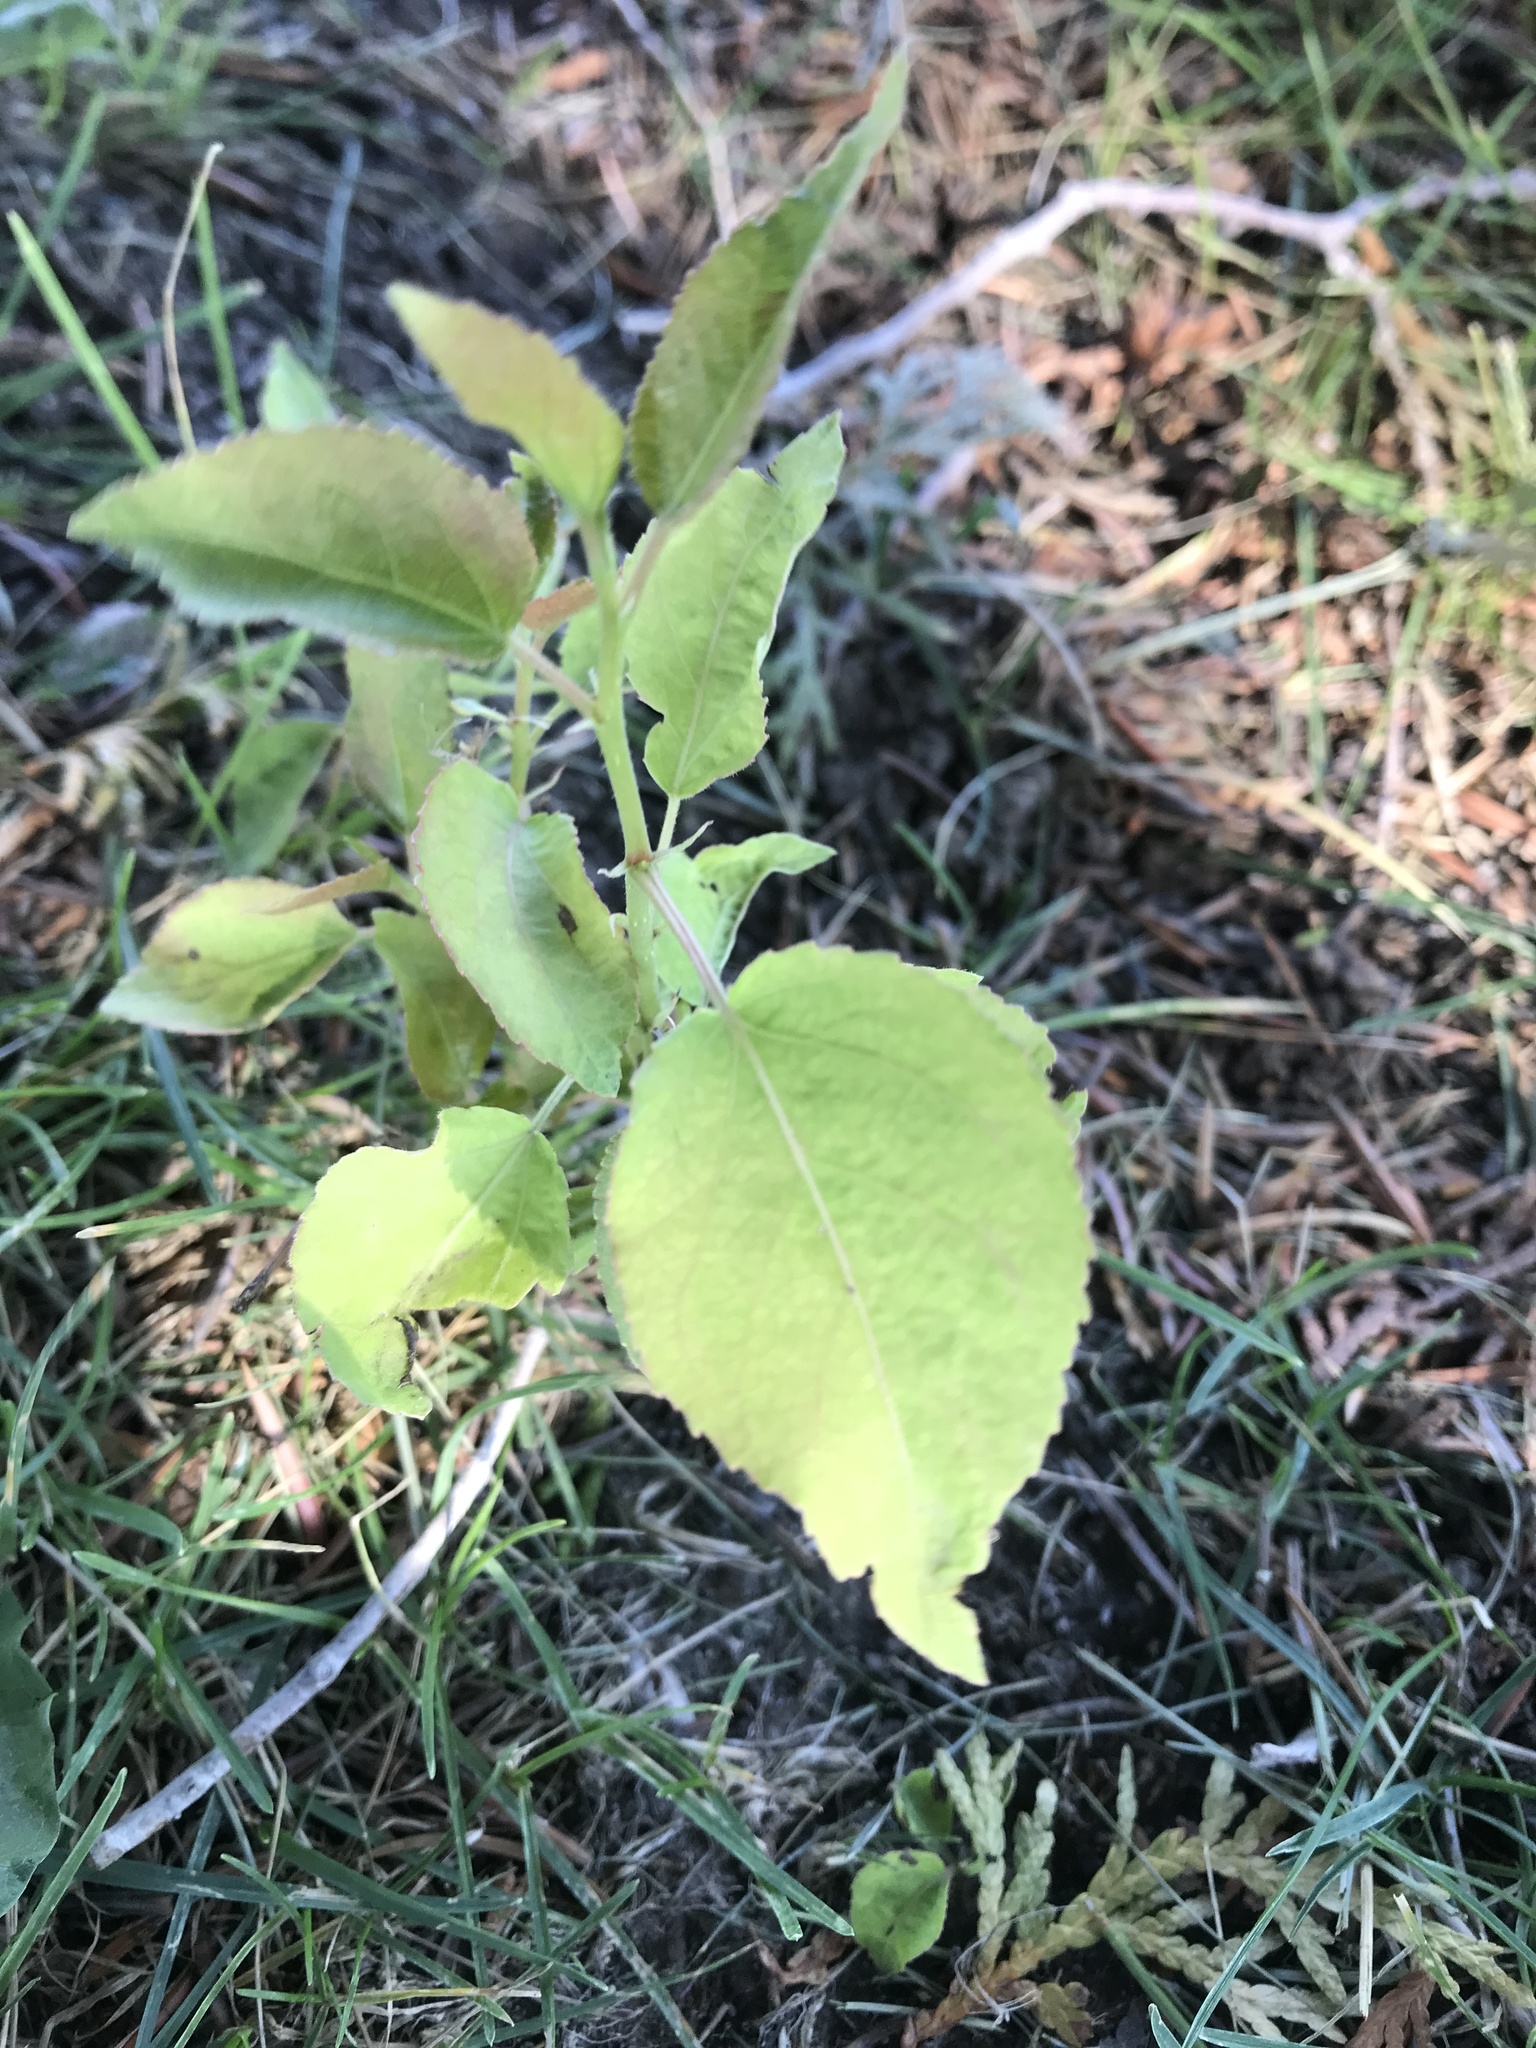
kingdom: Plantae
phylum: Tracheophyta
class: Magnoliopsida
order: Malpighiales
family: Salicaceae
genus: Populus
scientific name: Populus tremuloides
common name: Quaking aspen
